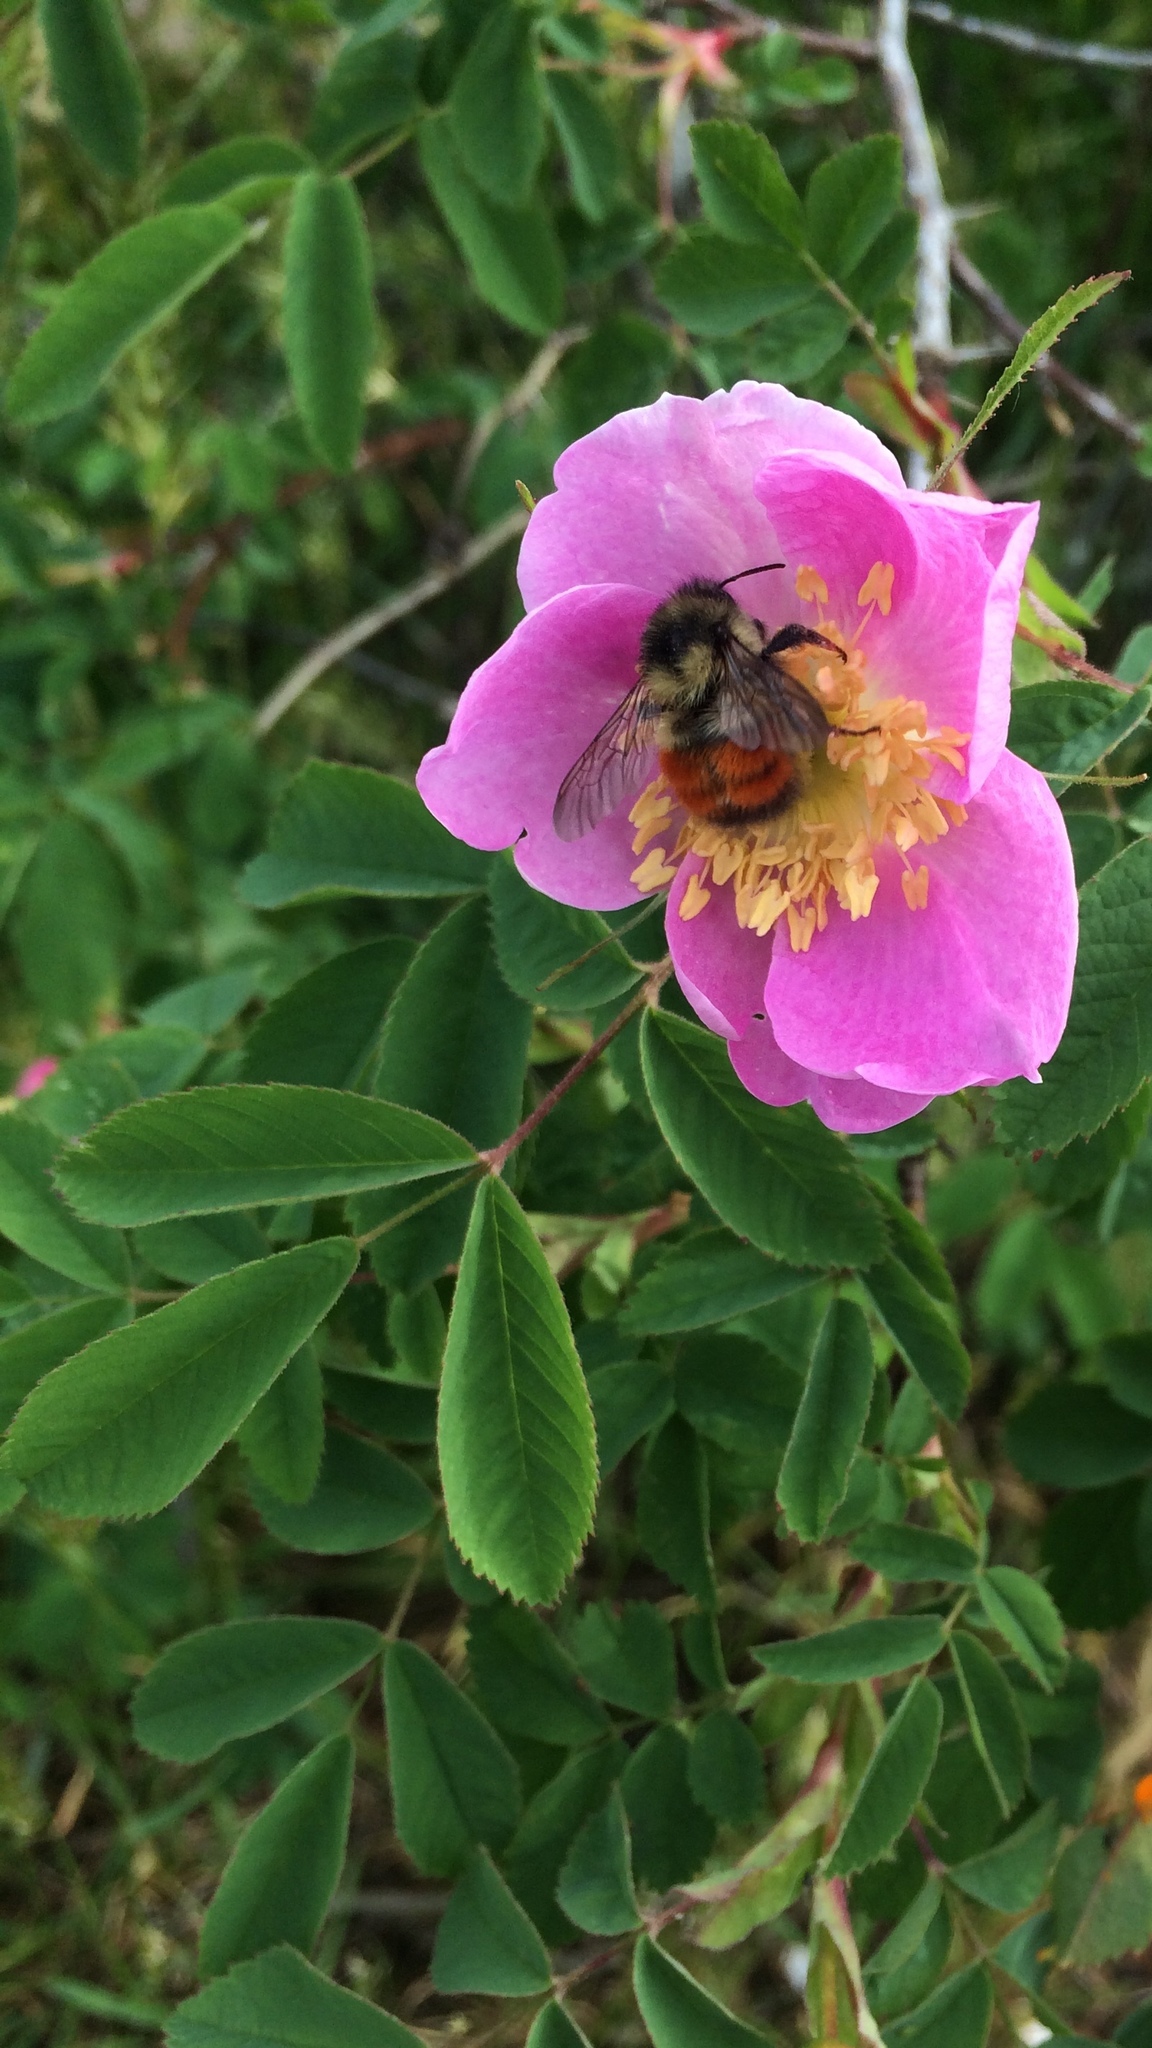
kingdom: Animalia
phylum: Arthropoda
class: Insecta
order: Hymenoptera
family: Apidae
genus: Bombus
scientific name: Bombus melanopygus
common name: Black tail bumble bee
